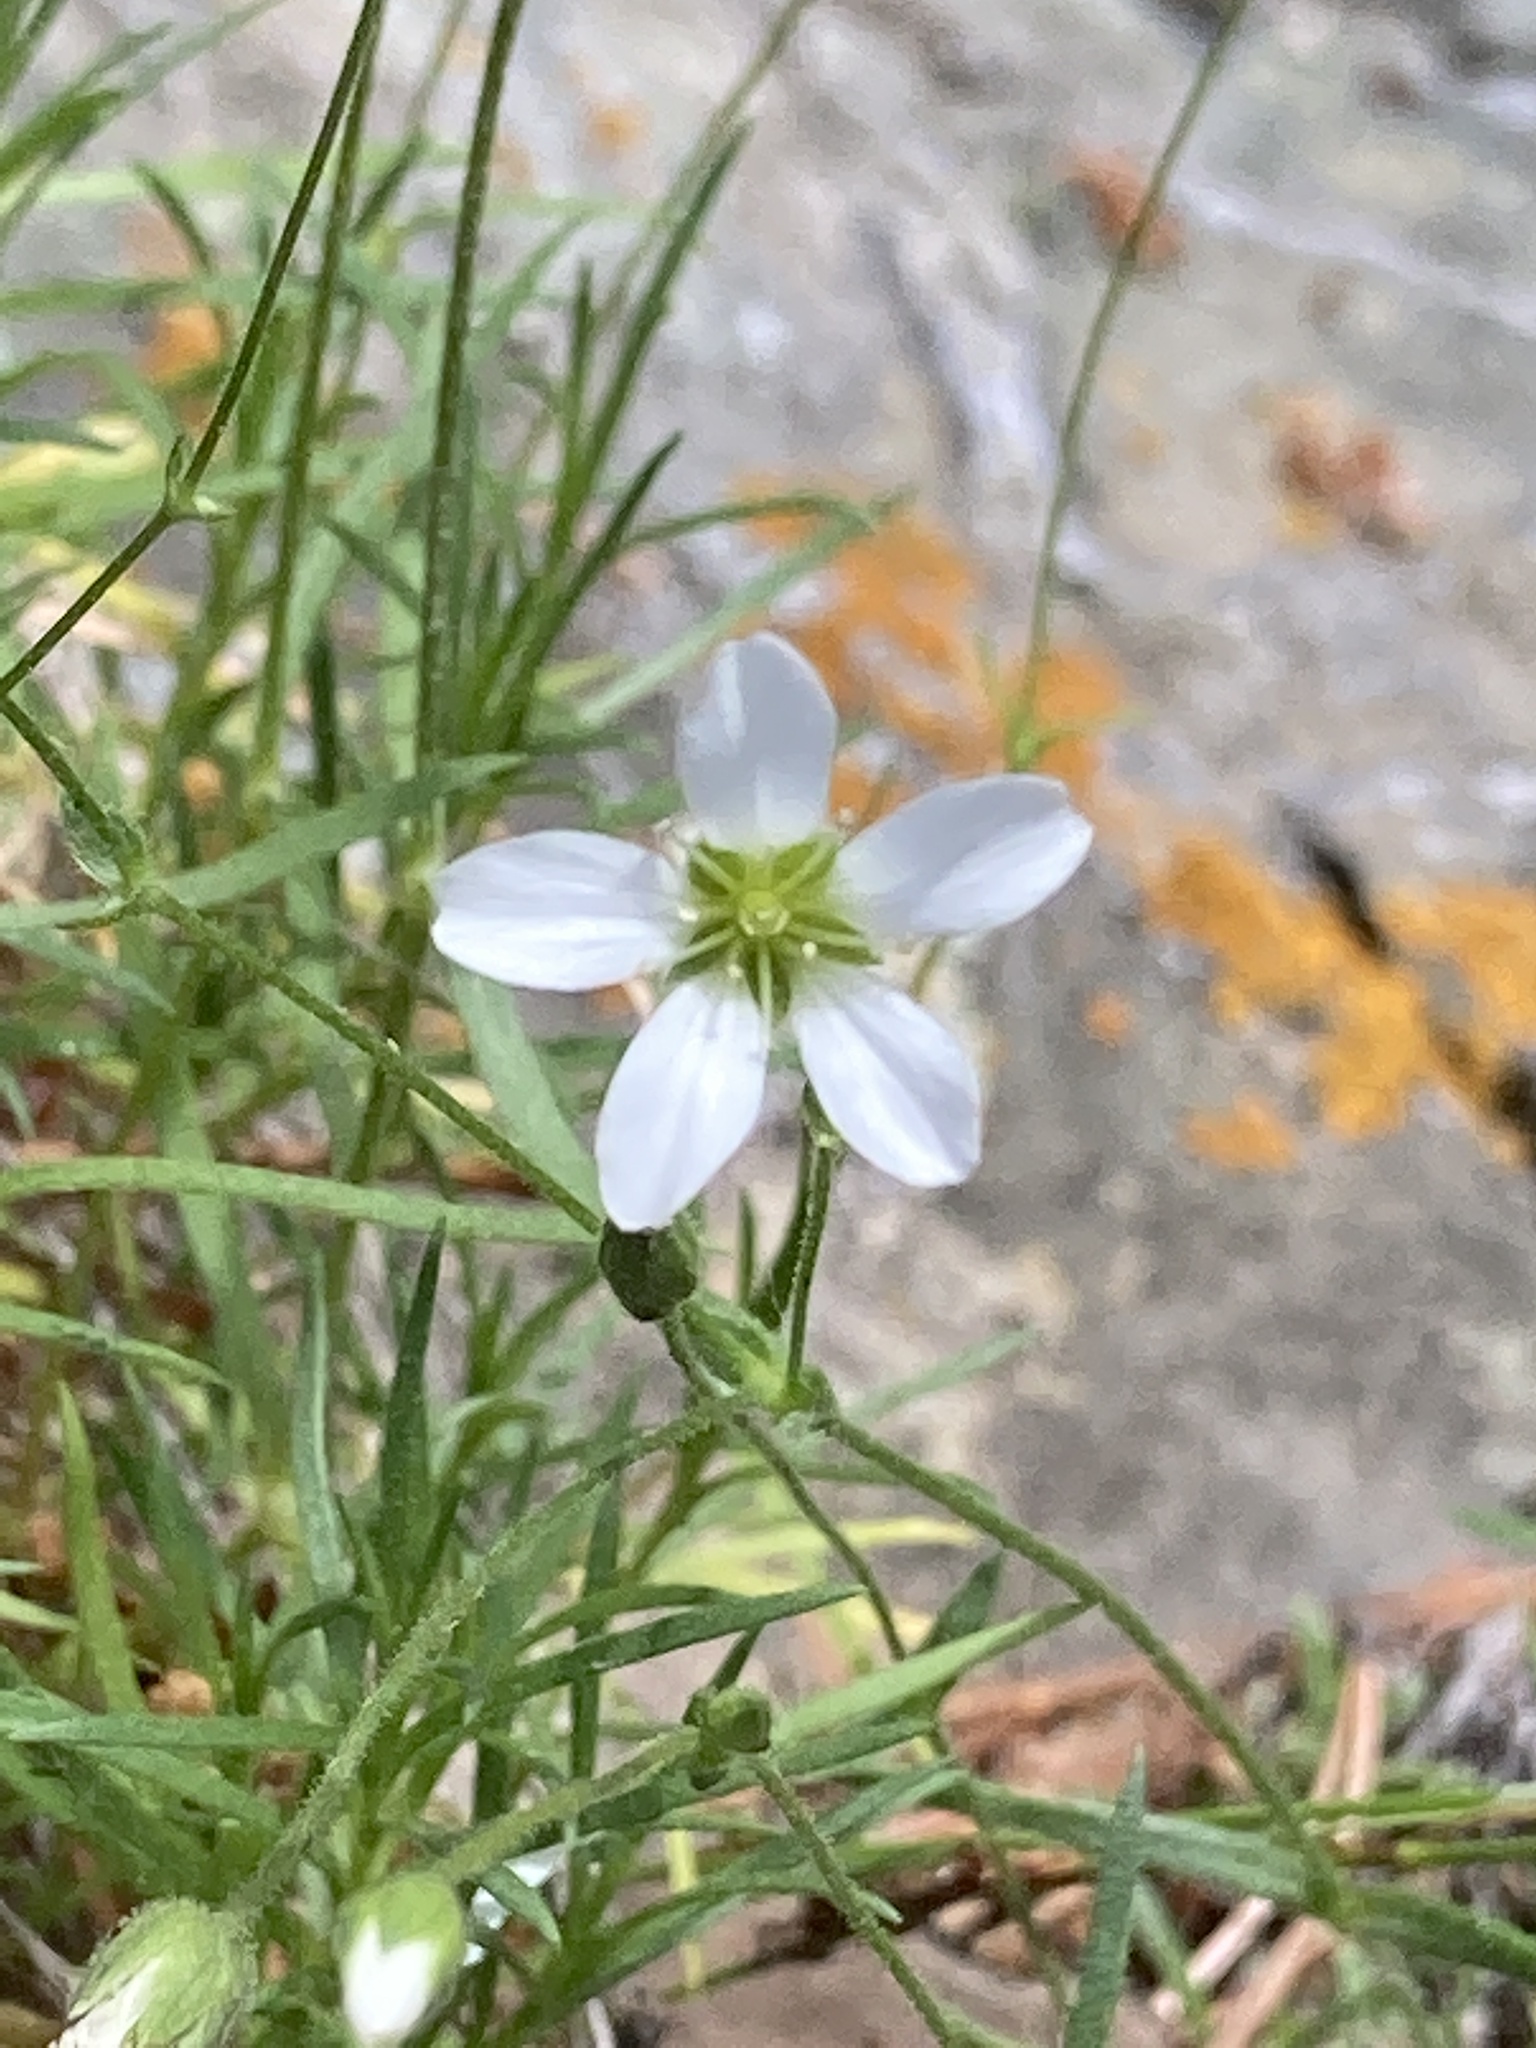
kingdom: Plantae
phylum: Tracheophyta
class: Magnoliopsida
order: Caryophyllales
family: Caryophyllaceae
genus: Sabulina
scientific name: Sabulina helmii
